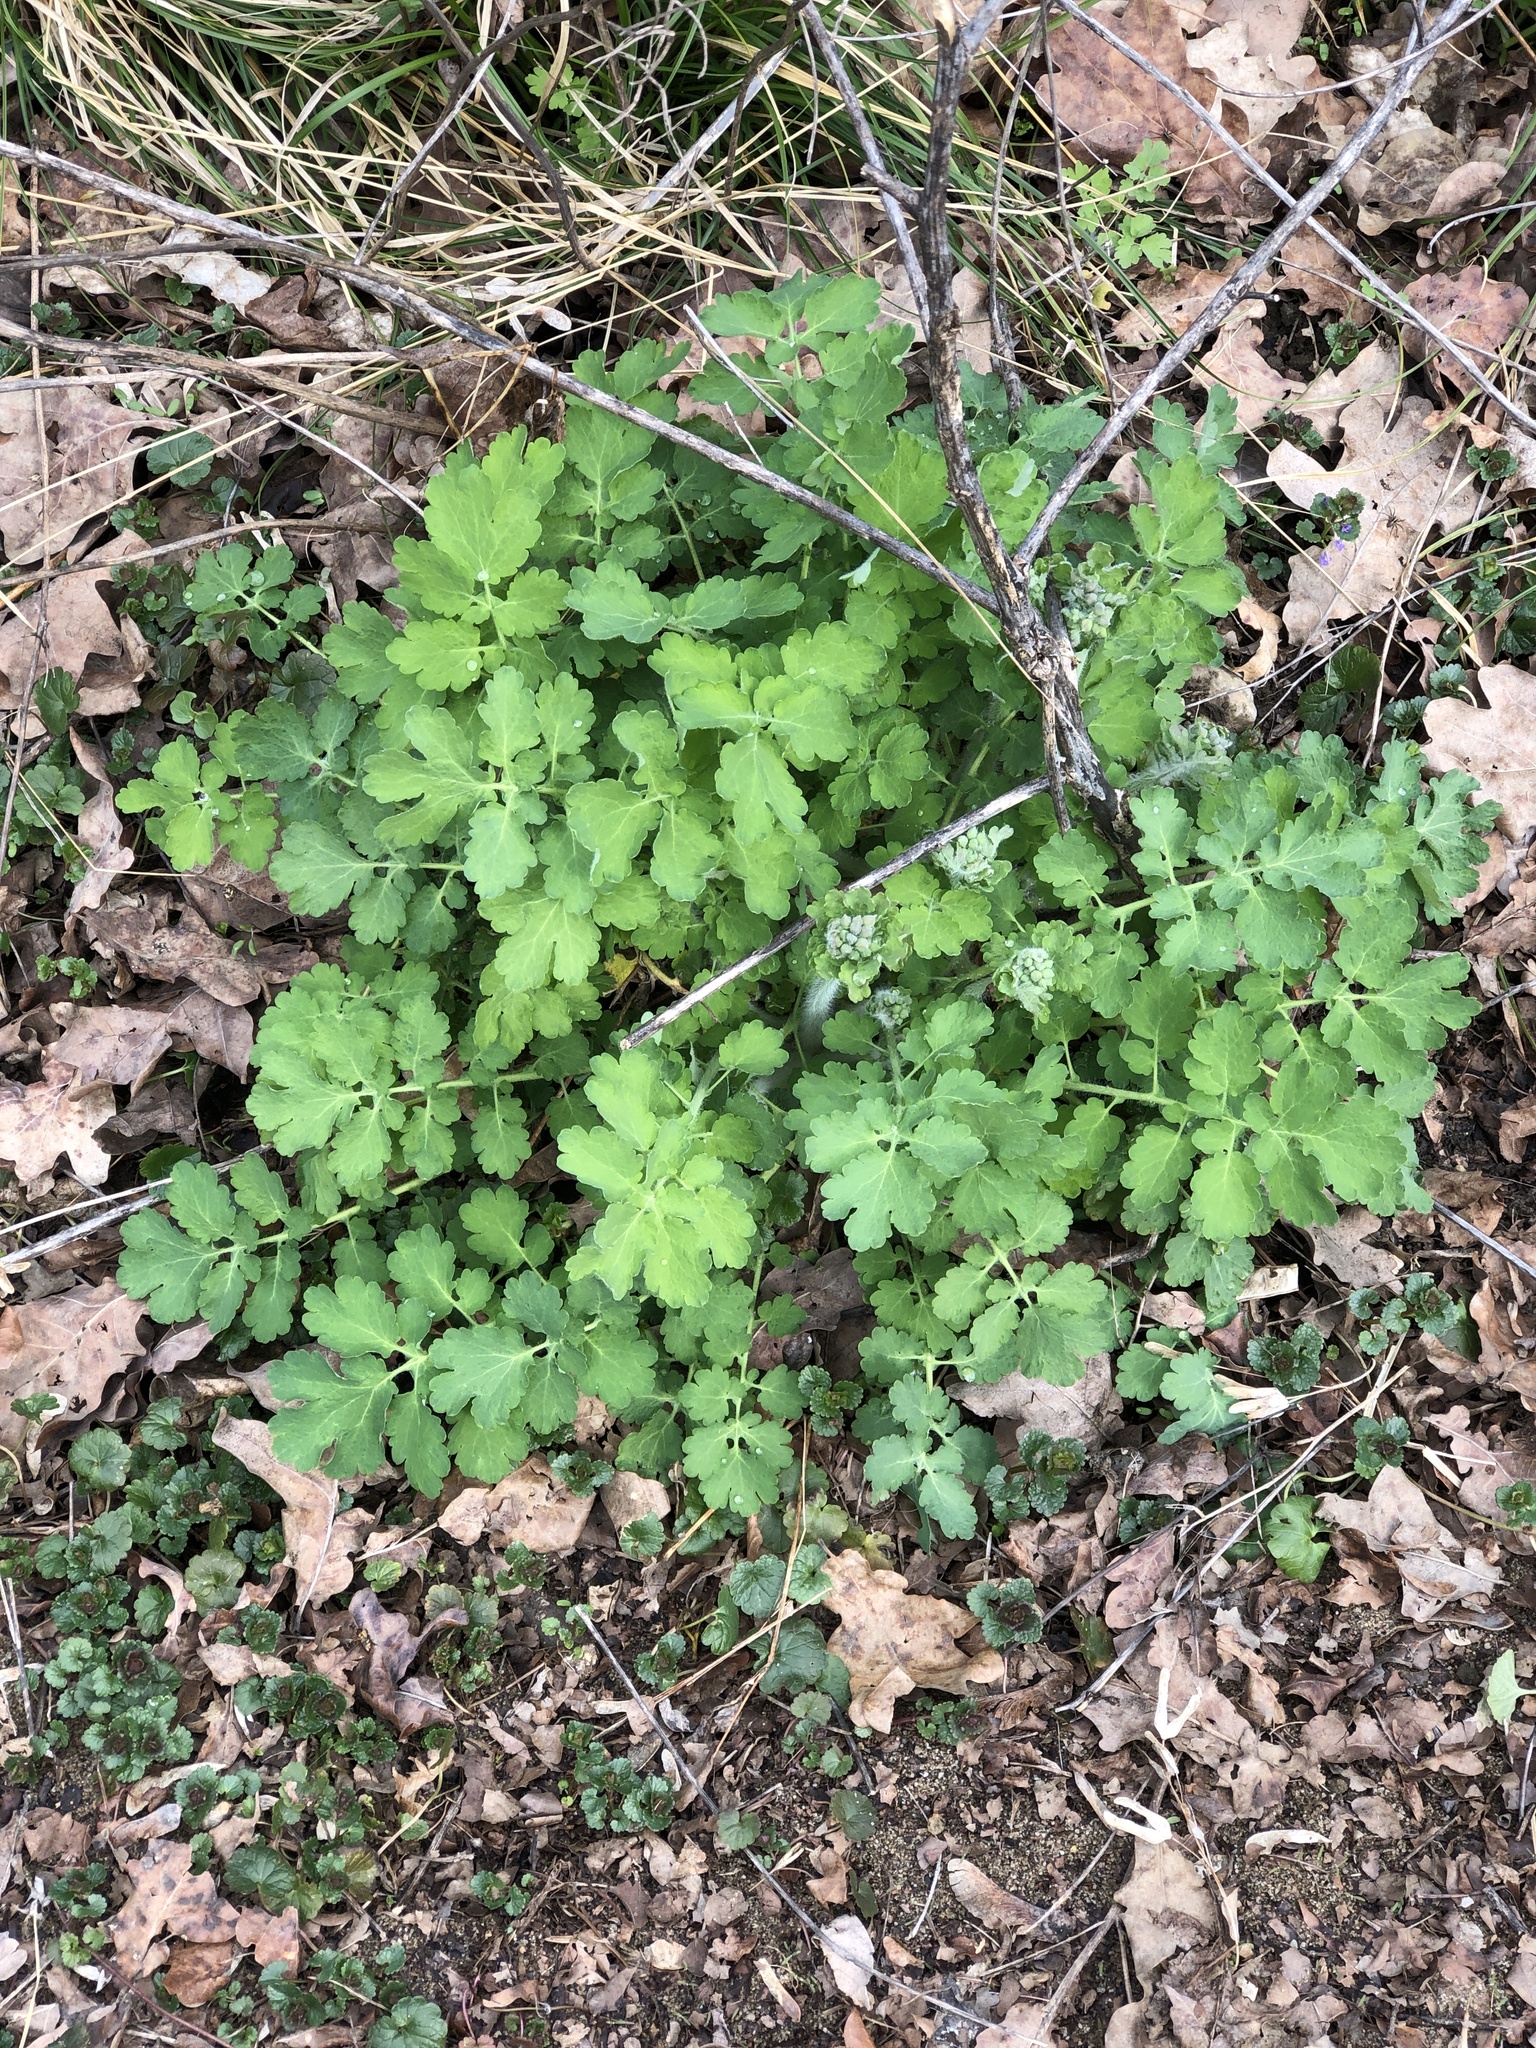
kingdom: Plantae
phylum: Tracheophyta
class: Magnoliopsida
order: Ranunculales
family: Papaveraceae
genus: Chelidonium
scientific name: Chelidonium majus
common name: Greater celandine
